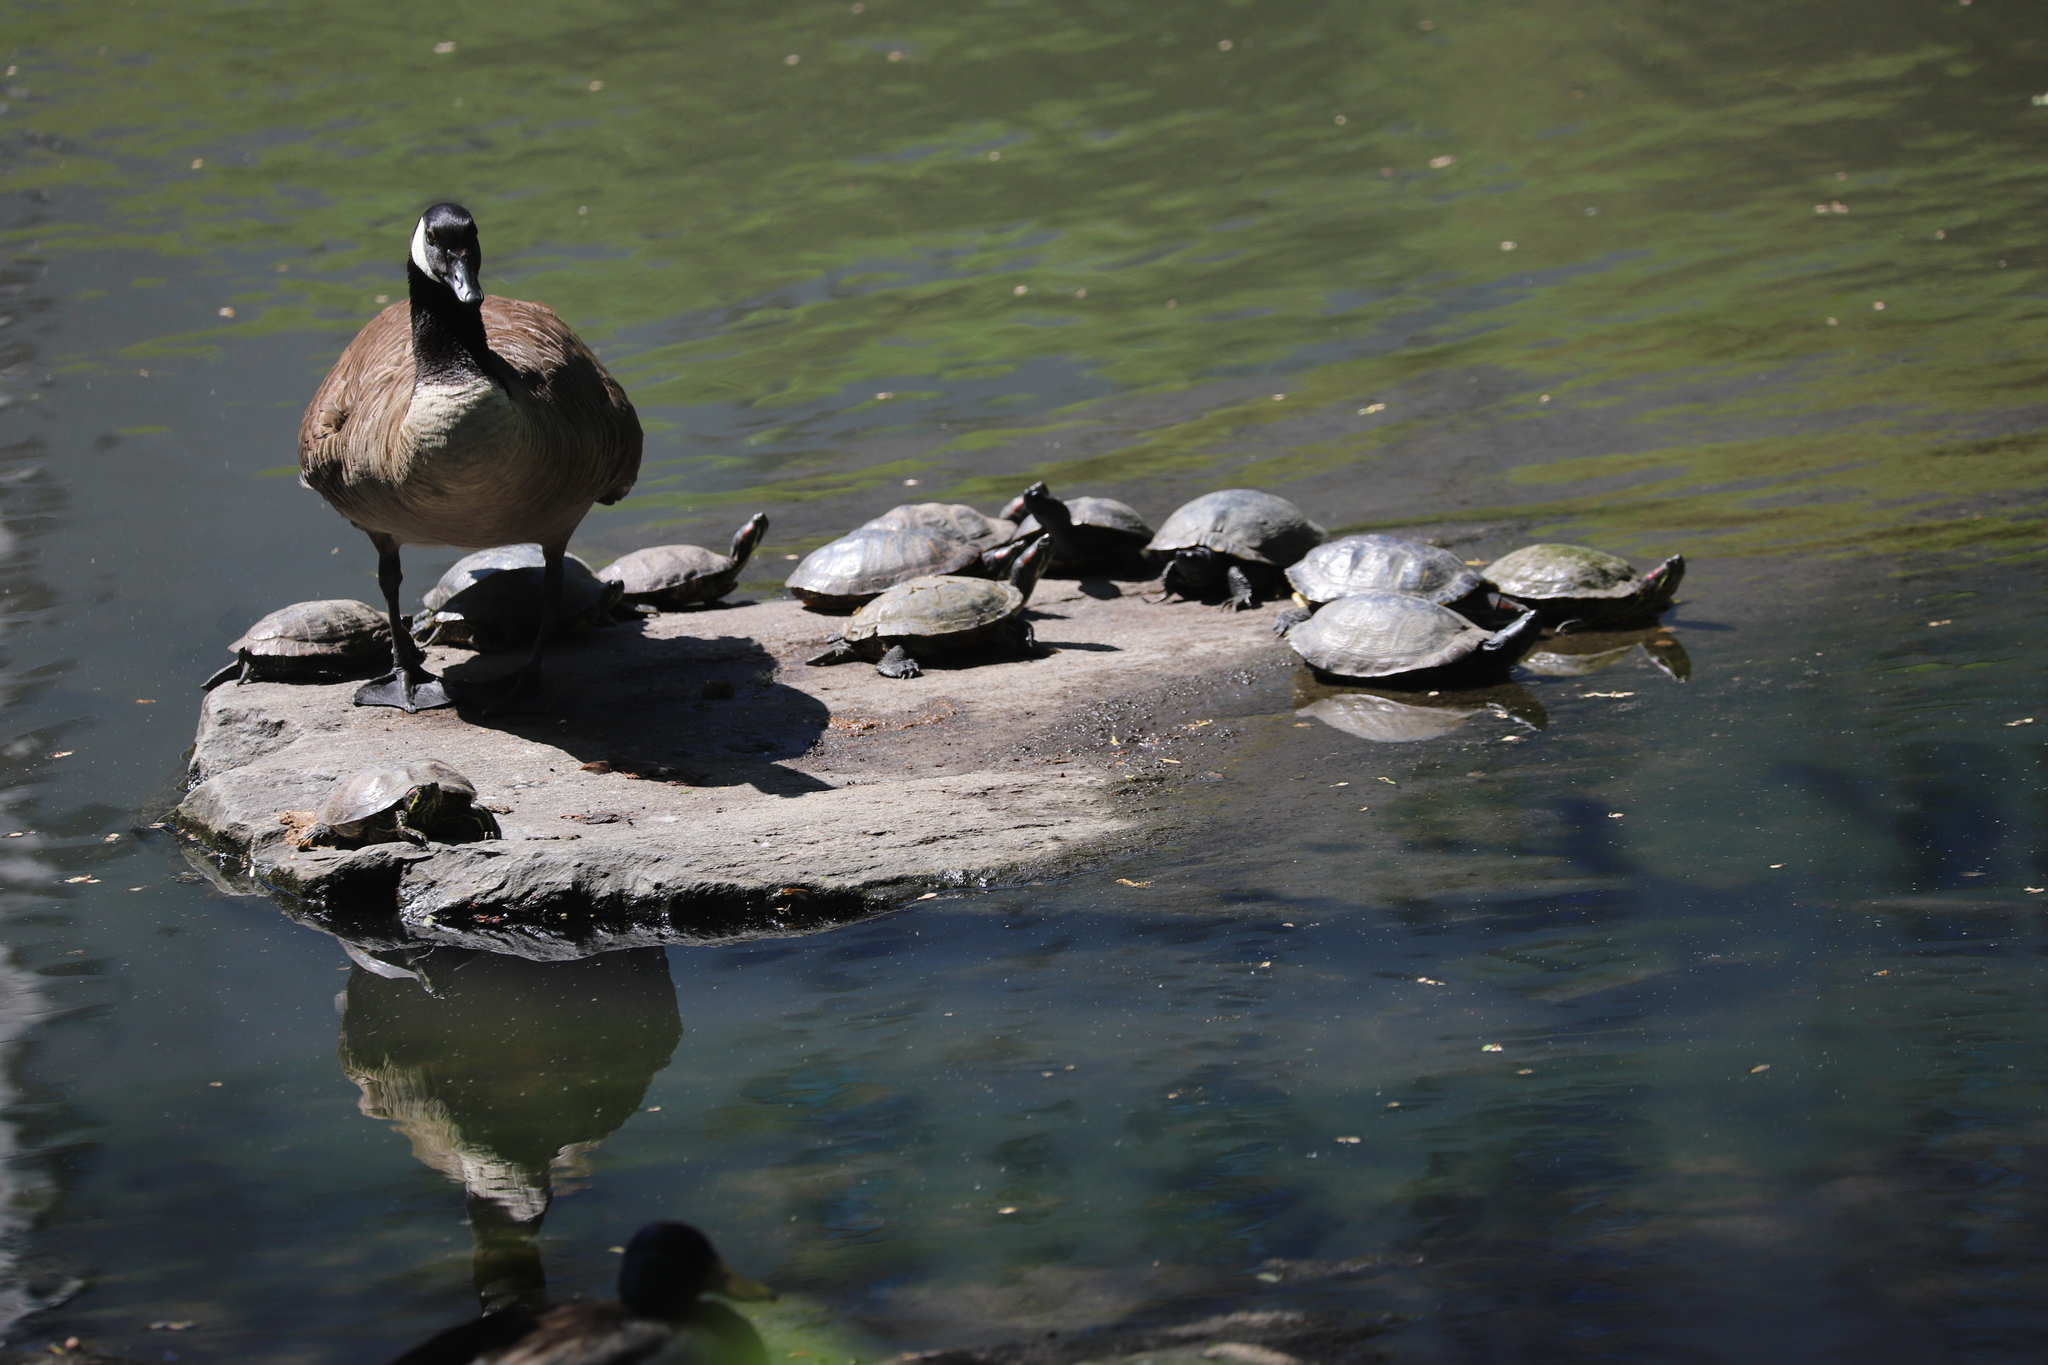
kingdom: Animalia
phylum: Chordata
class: Aves
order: Anseriformes
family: Anatidae
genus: Branta
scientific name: Branta canadensis
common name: Canada goose
